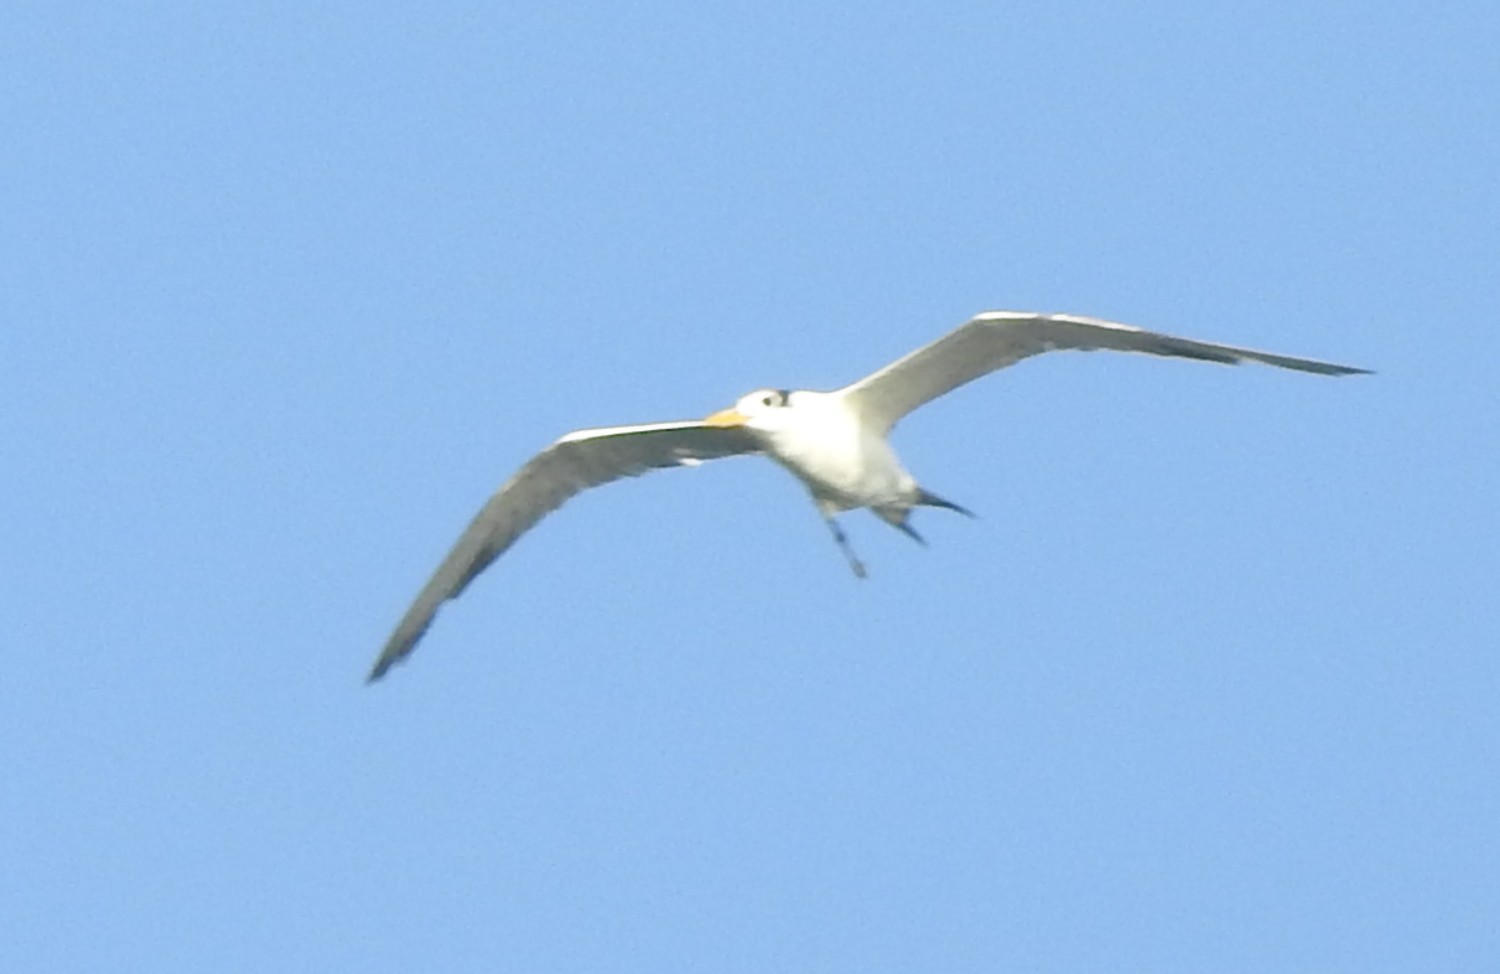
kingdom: Animalia
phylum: Chordata
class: Aves
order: Charadriiformes
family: Laridae
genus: Thalasseus
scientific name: Thalasseus bergii
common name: Greater crested tern
